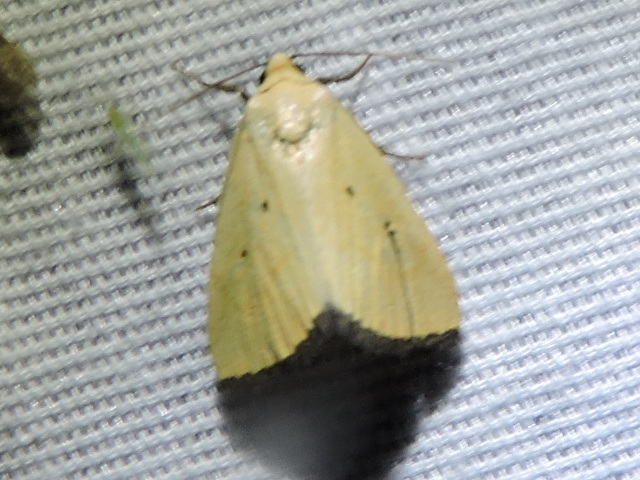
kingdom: Animalia
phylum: Arthropoda
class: Insecta
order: Lepidoptera
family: Noctuidae
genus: Marimatha
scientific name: Marimatha nigrofimbria
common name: Black-bordered lemon moth
